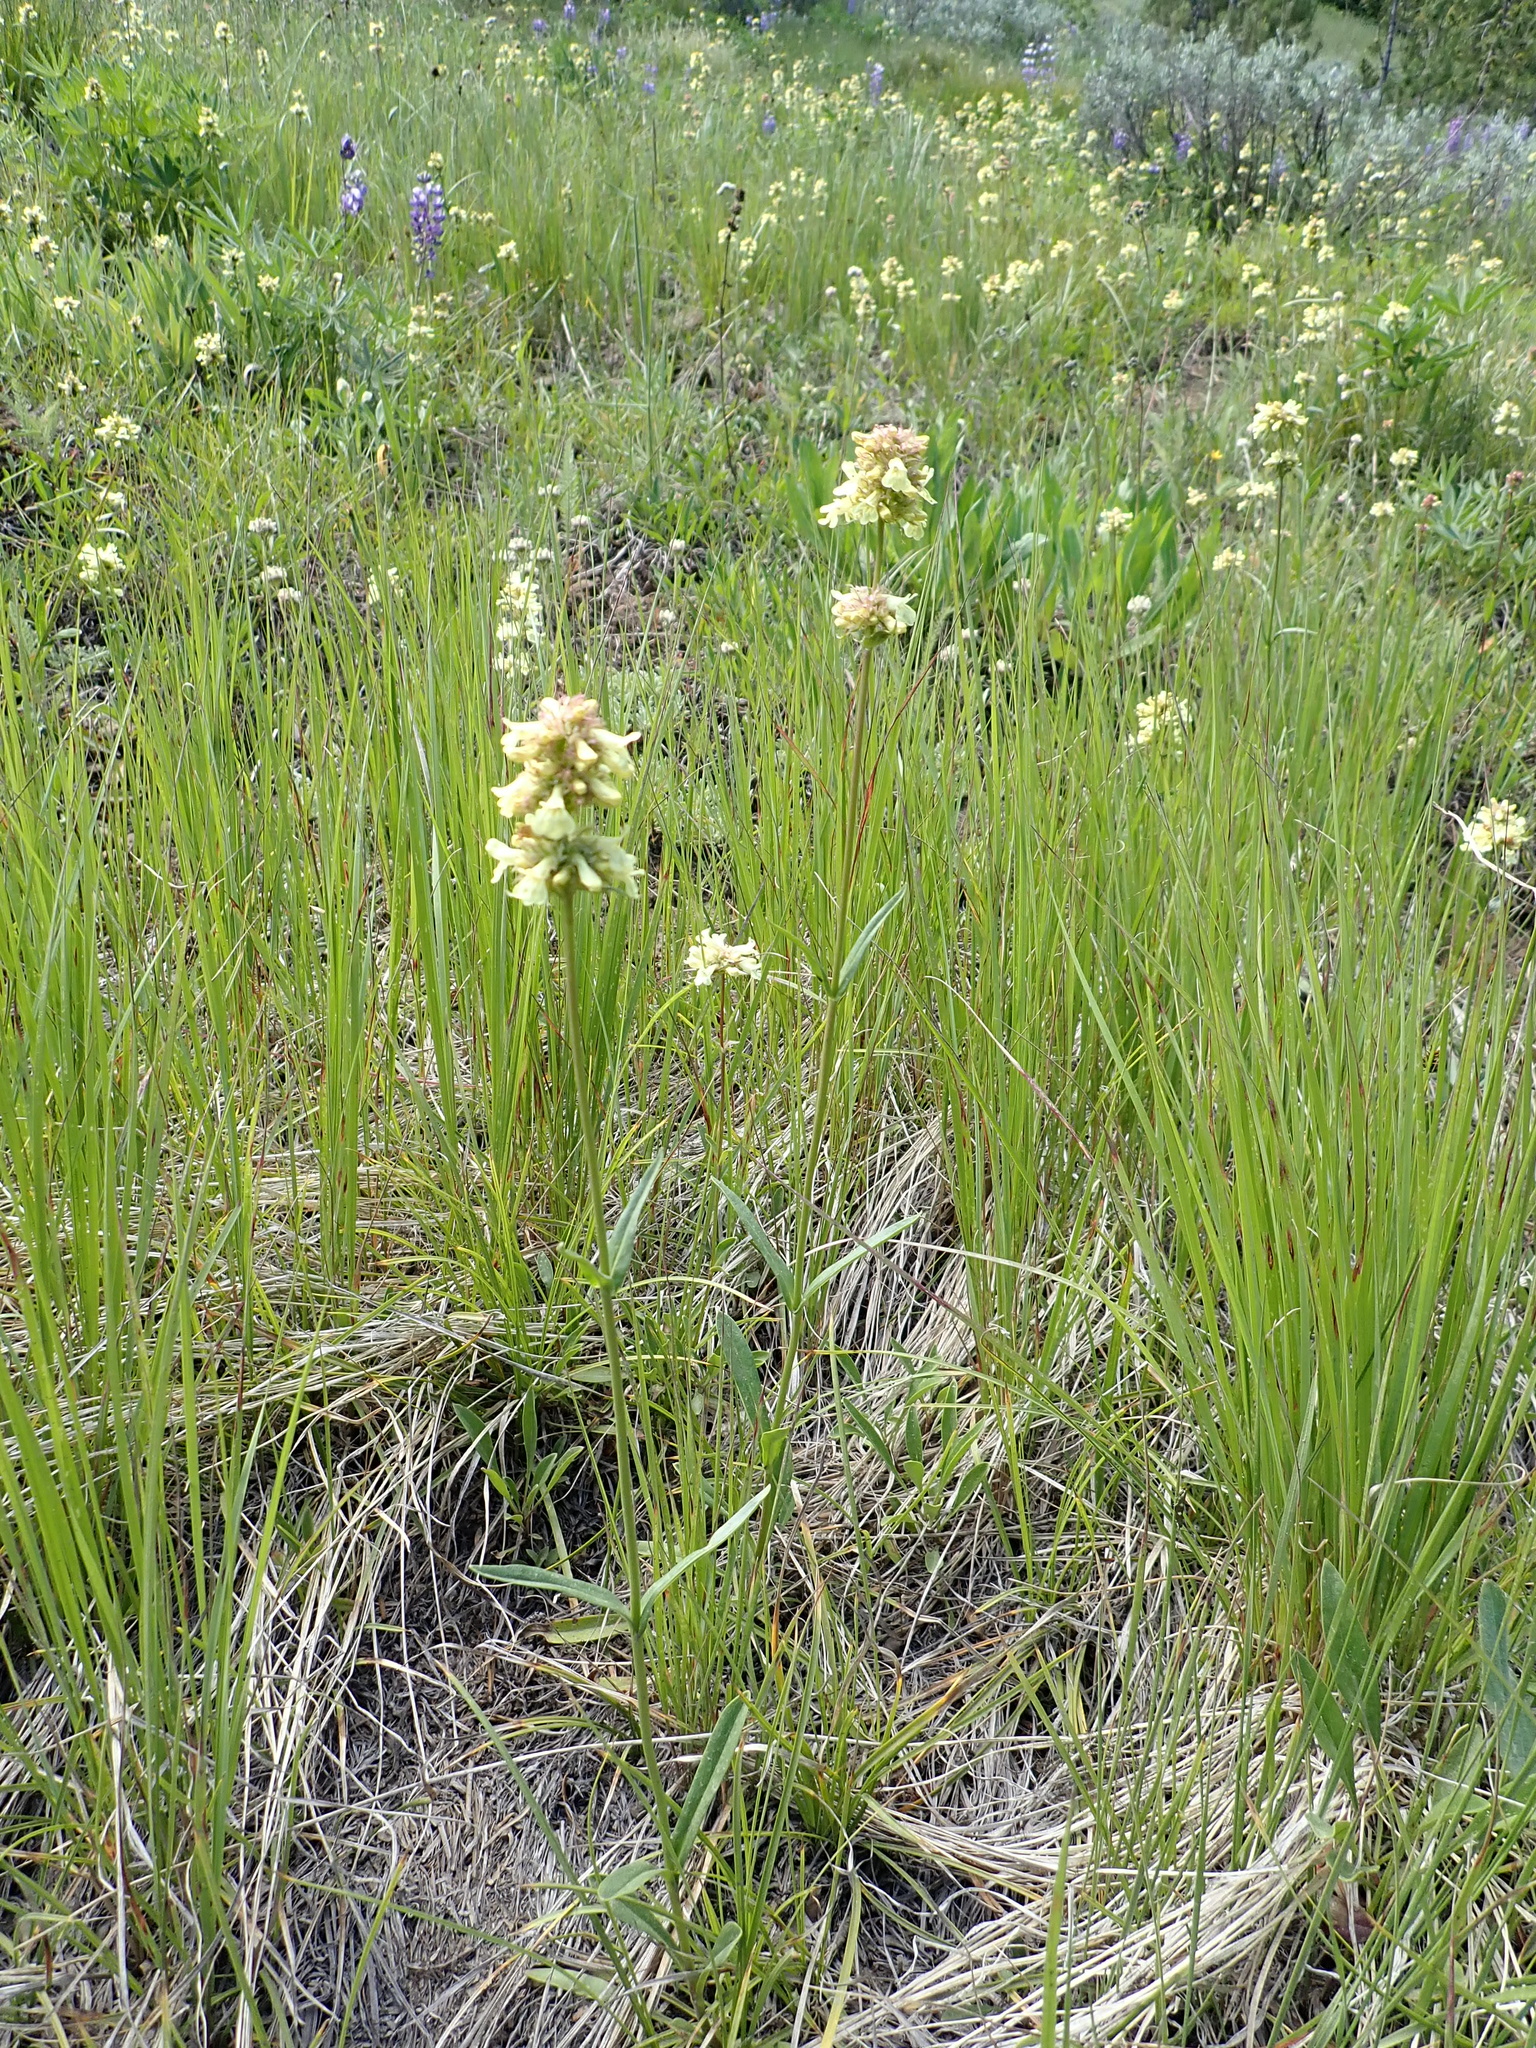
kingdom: Plantae
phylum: Tracheophyta
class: Magnoliopsida
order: Lamiales
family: Plantaginaceae
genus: Penstemon
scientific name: Penstemon confertus
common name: Lesser yellow beardtongue
